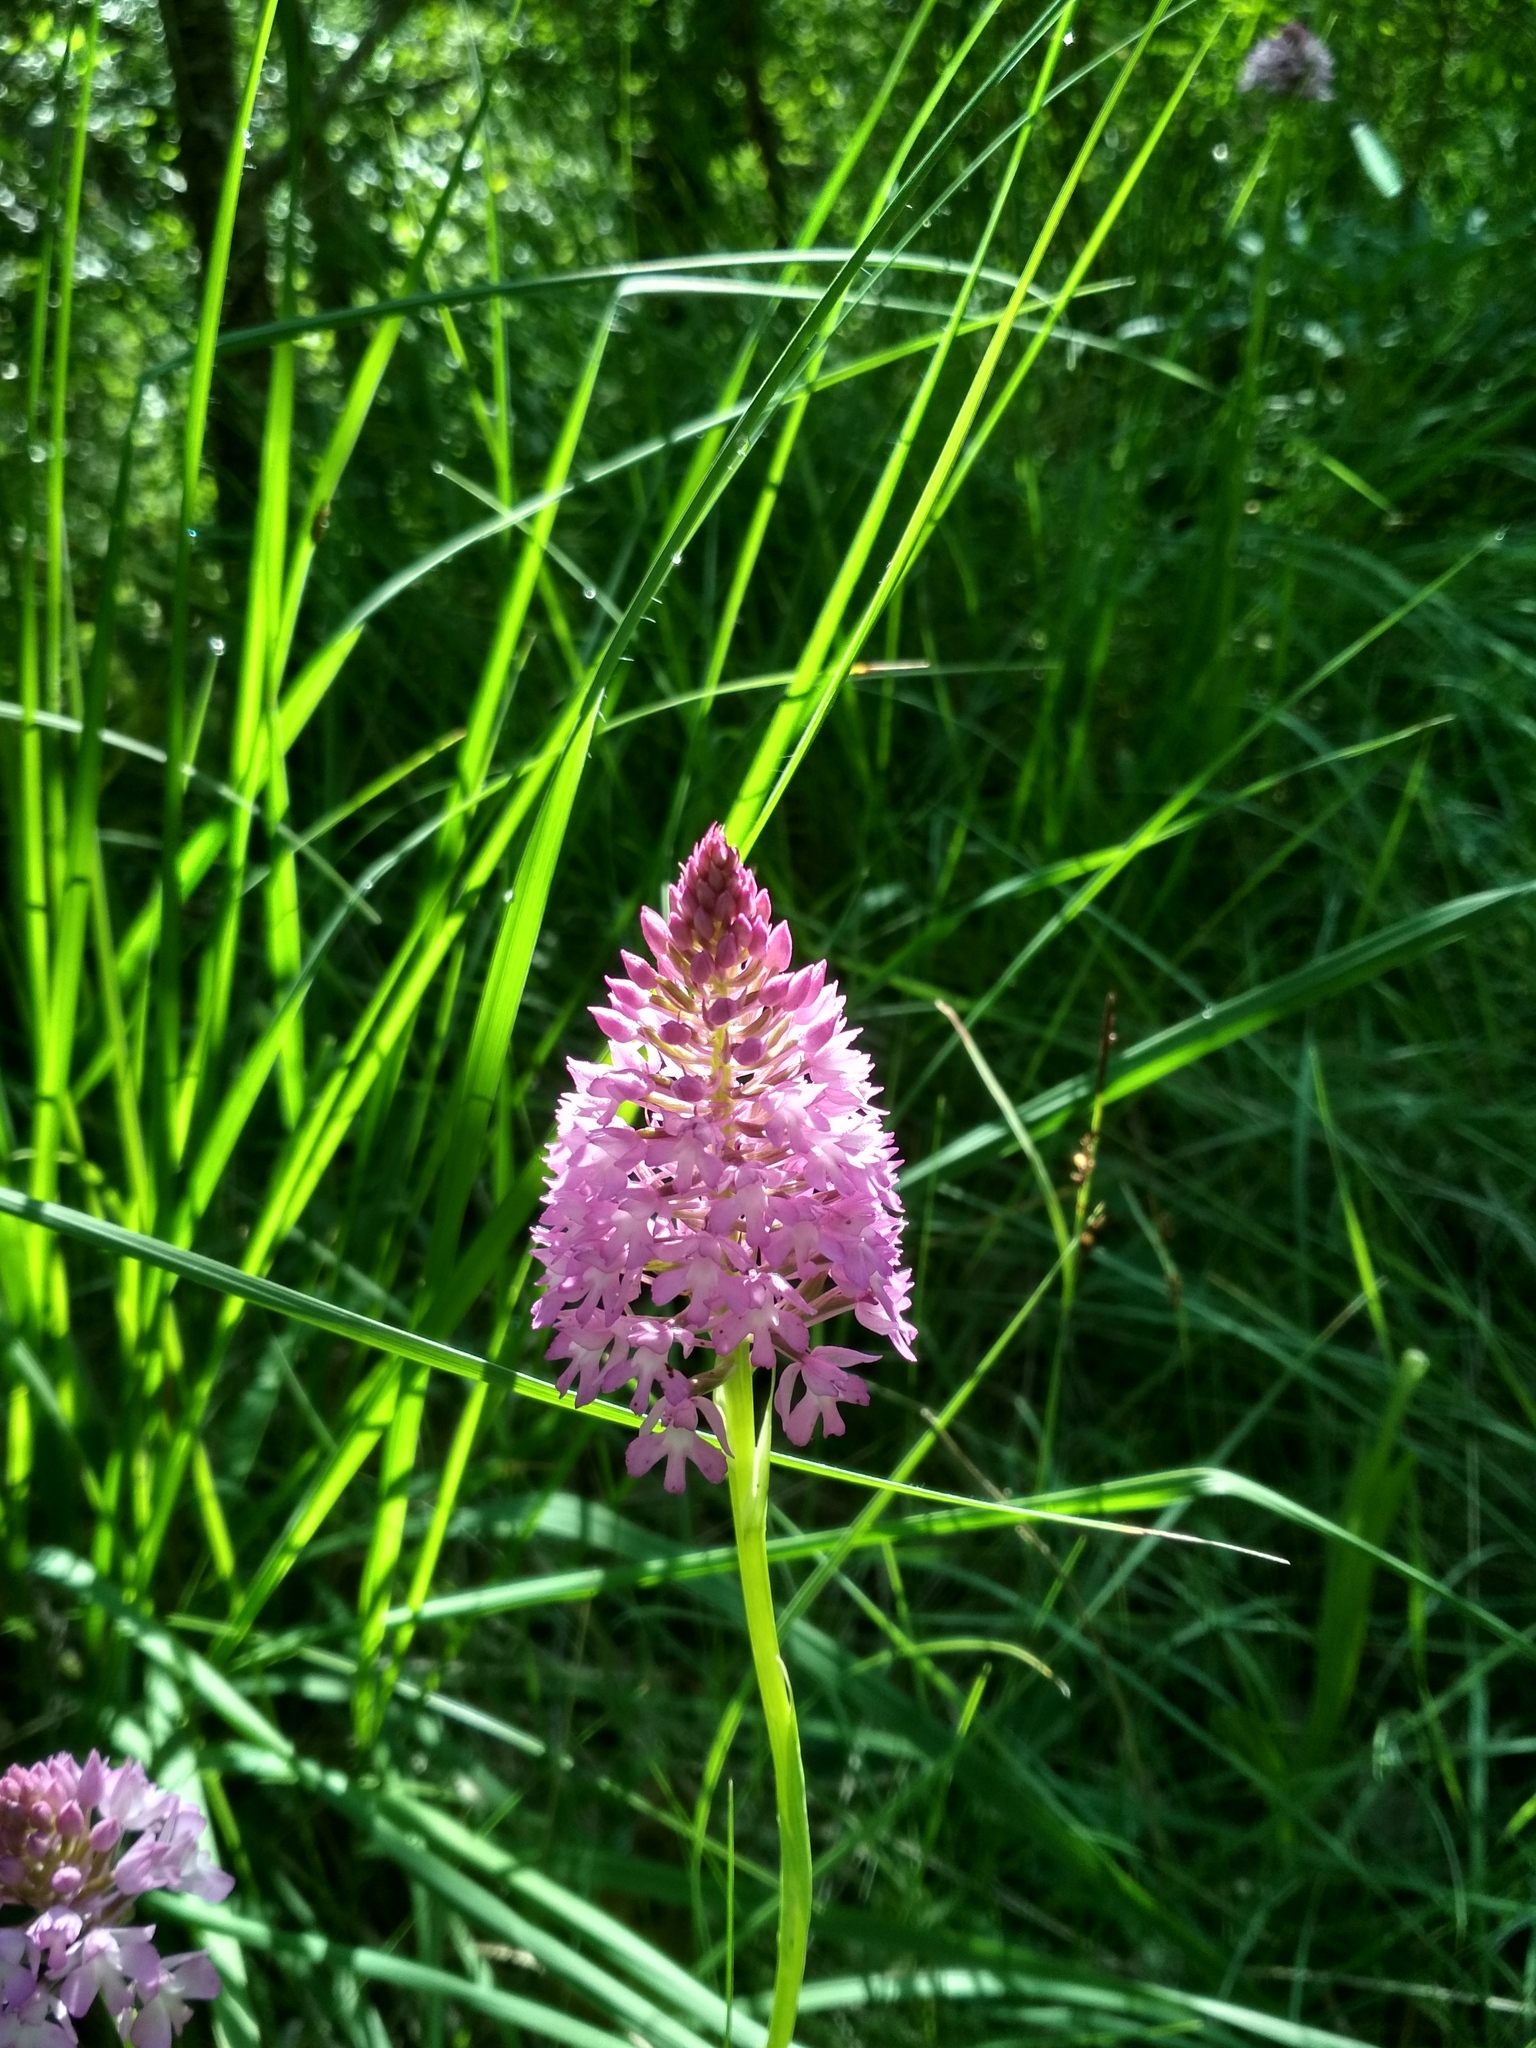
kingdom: Plantae
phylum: Tracheophyta
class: Liliopsida
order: Asparagales
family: Orchidaceae
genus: Anacamptis
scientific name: Anacamptis pyramidalis
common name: Pyramidal orchid
